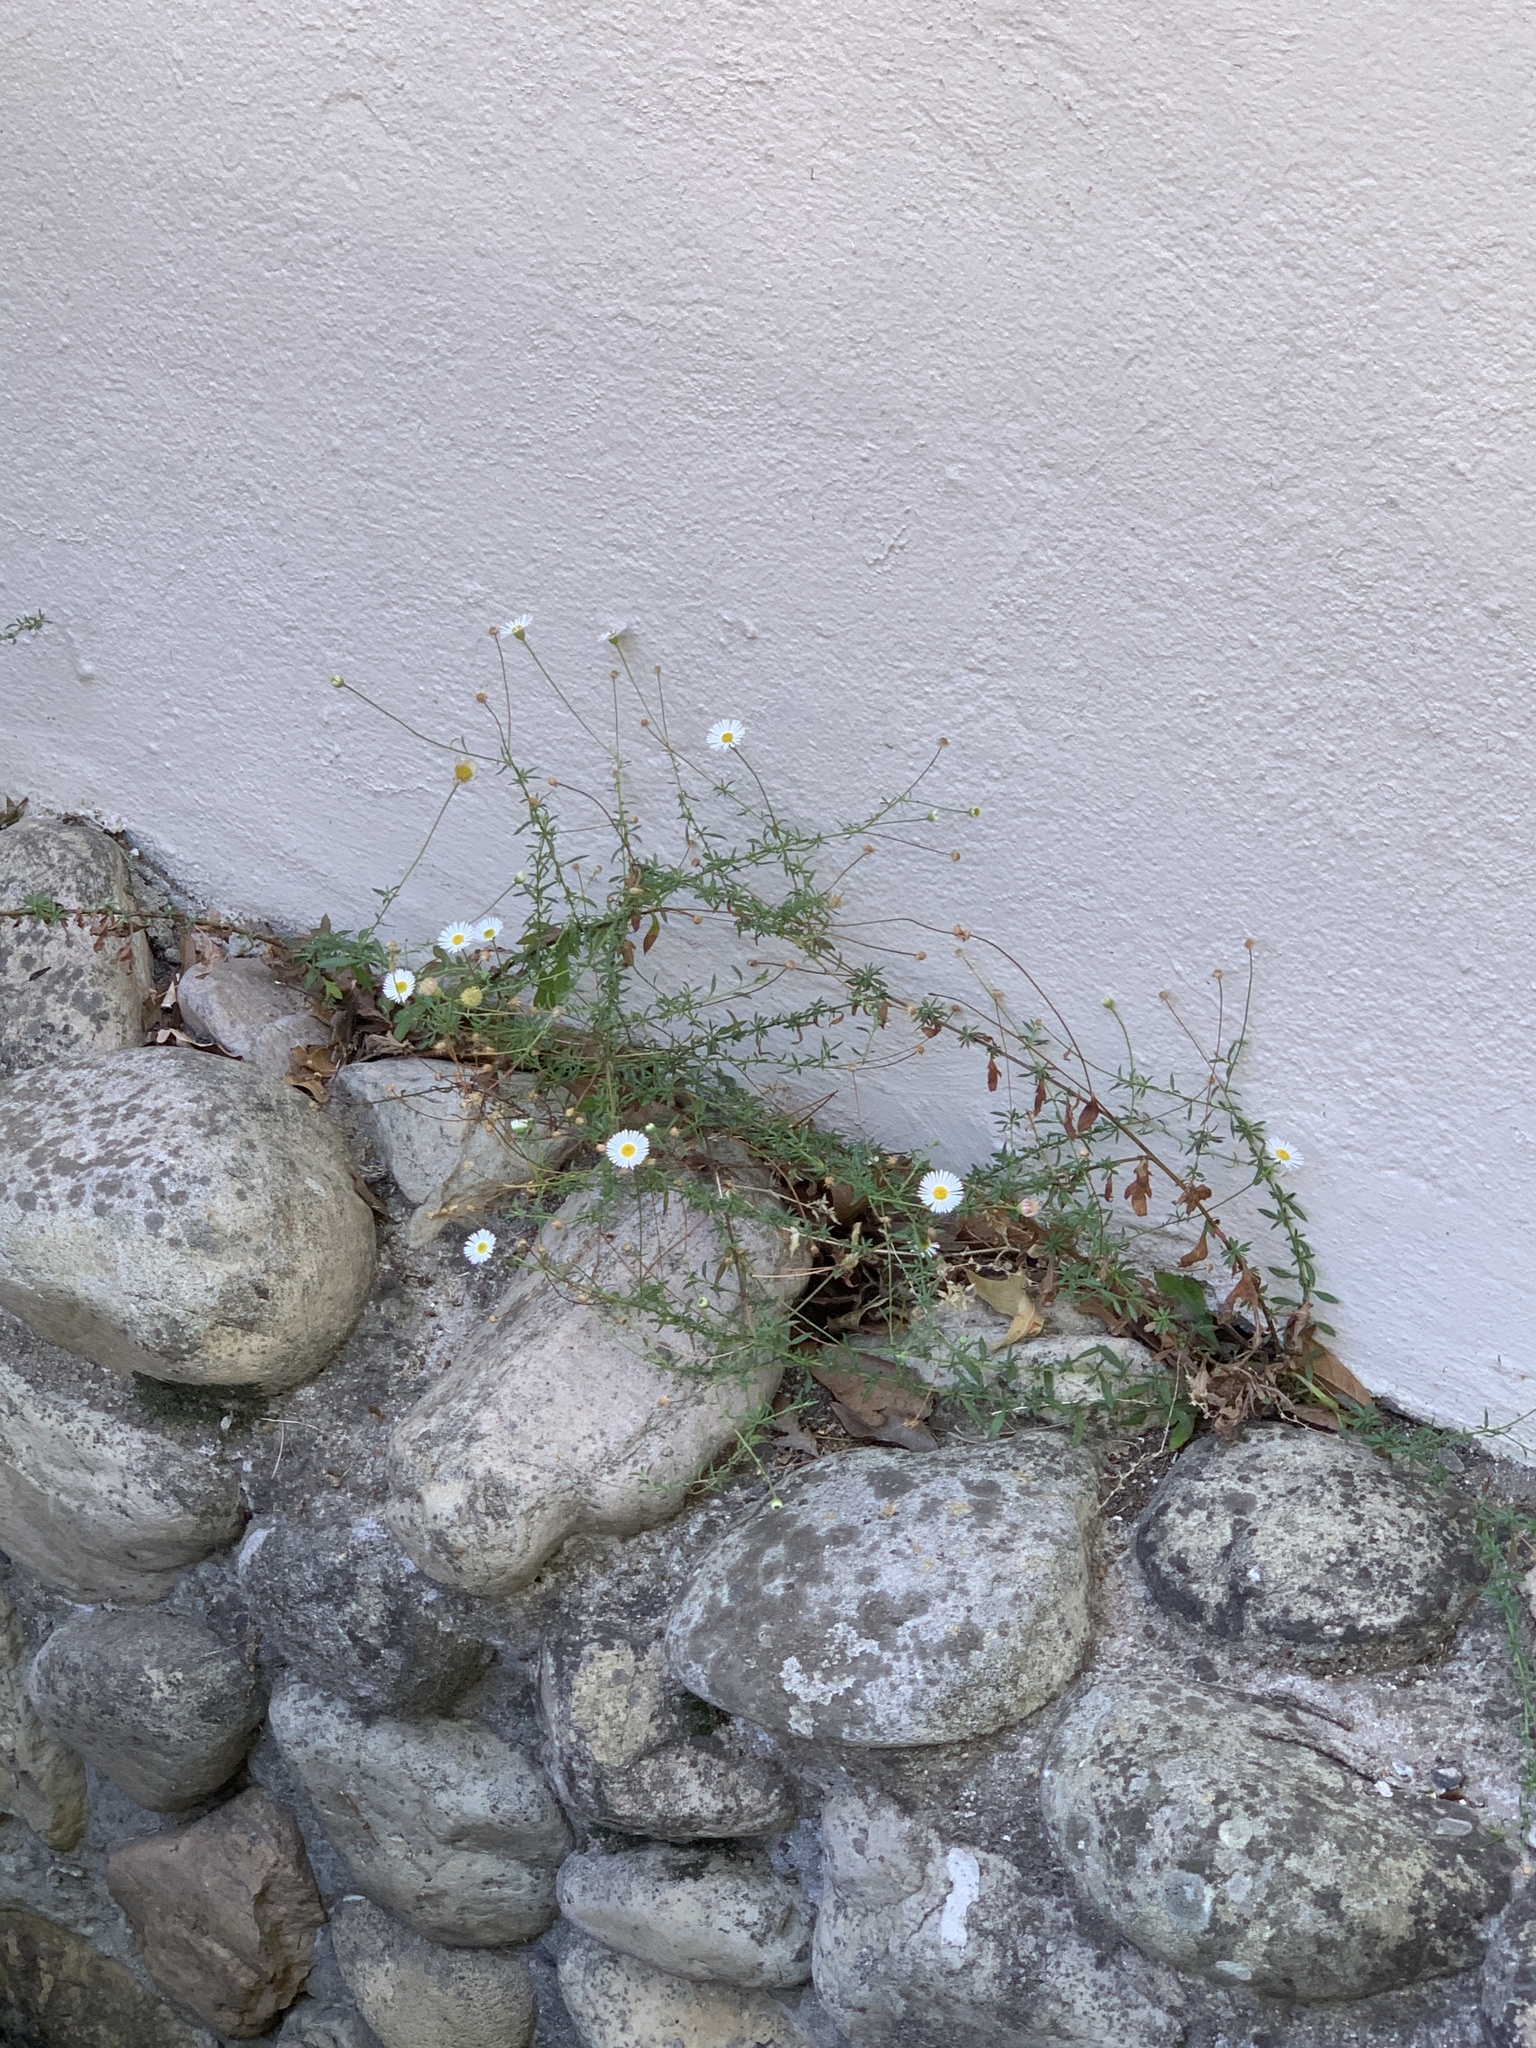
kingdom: Plantae
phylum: Tracheophyta
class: Magnoliopsida
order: Asterales
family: Asteraceae
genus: Erigeron
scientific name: Erigeron karvinskianus
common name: Mexican fleabane
